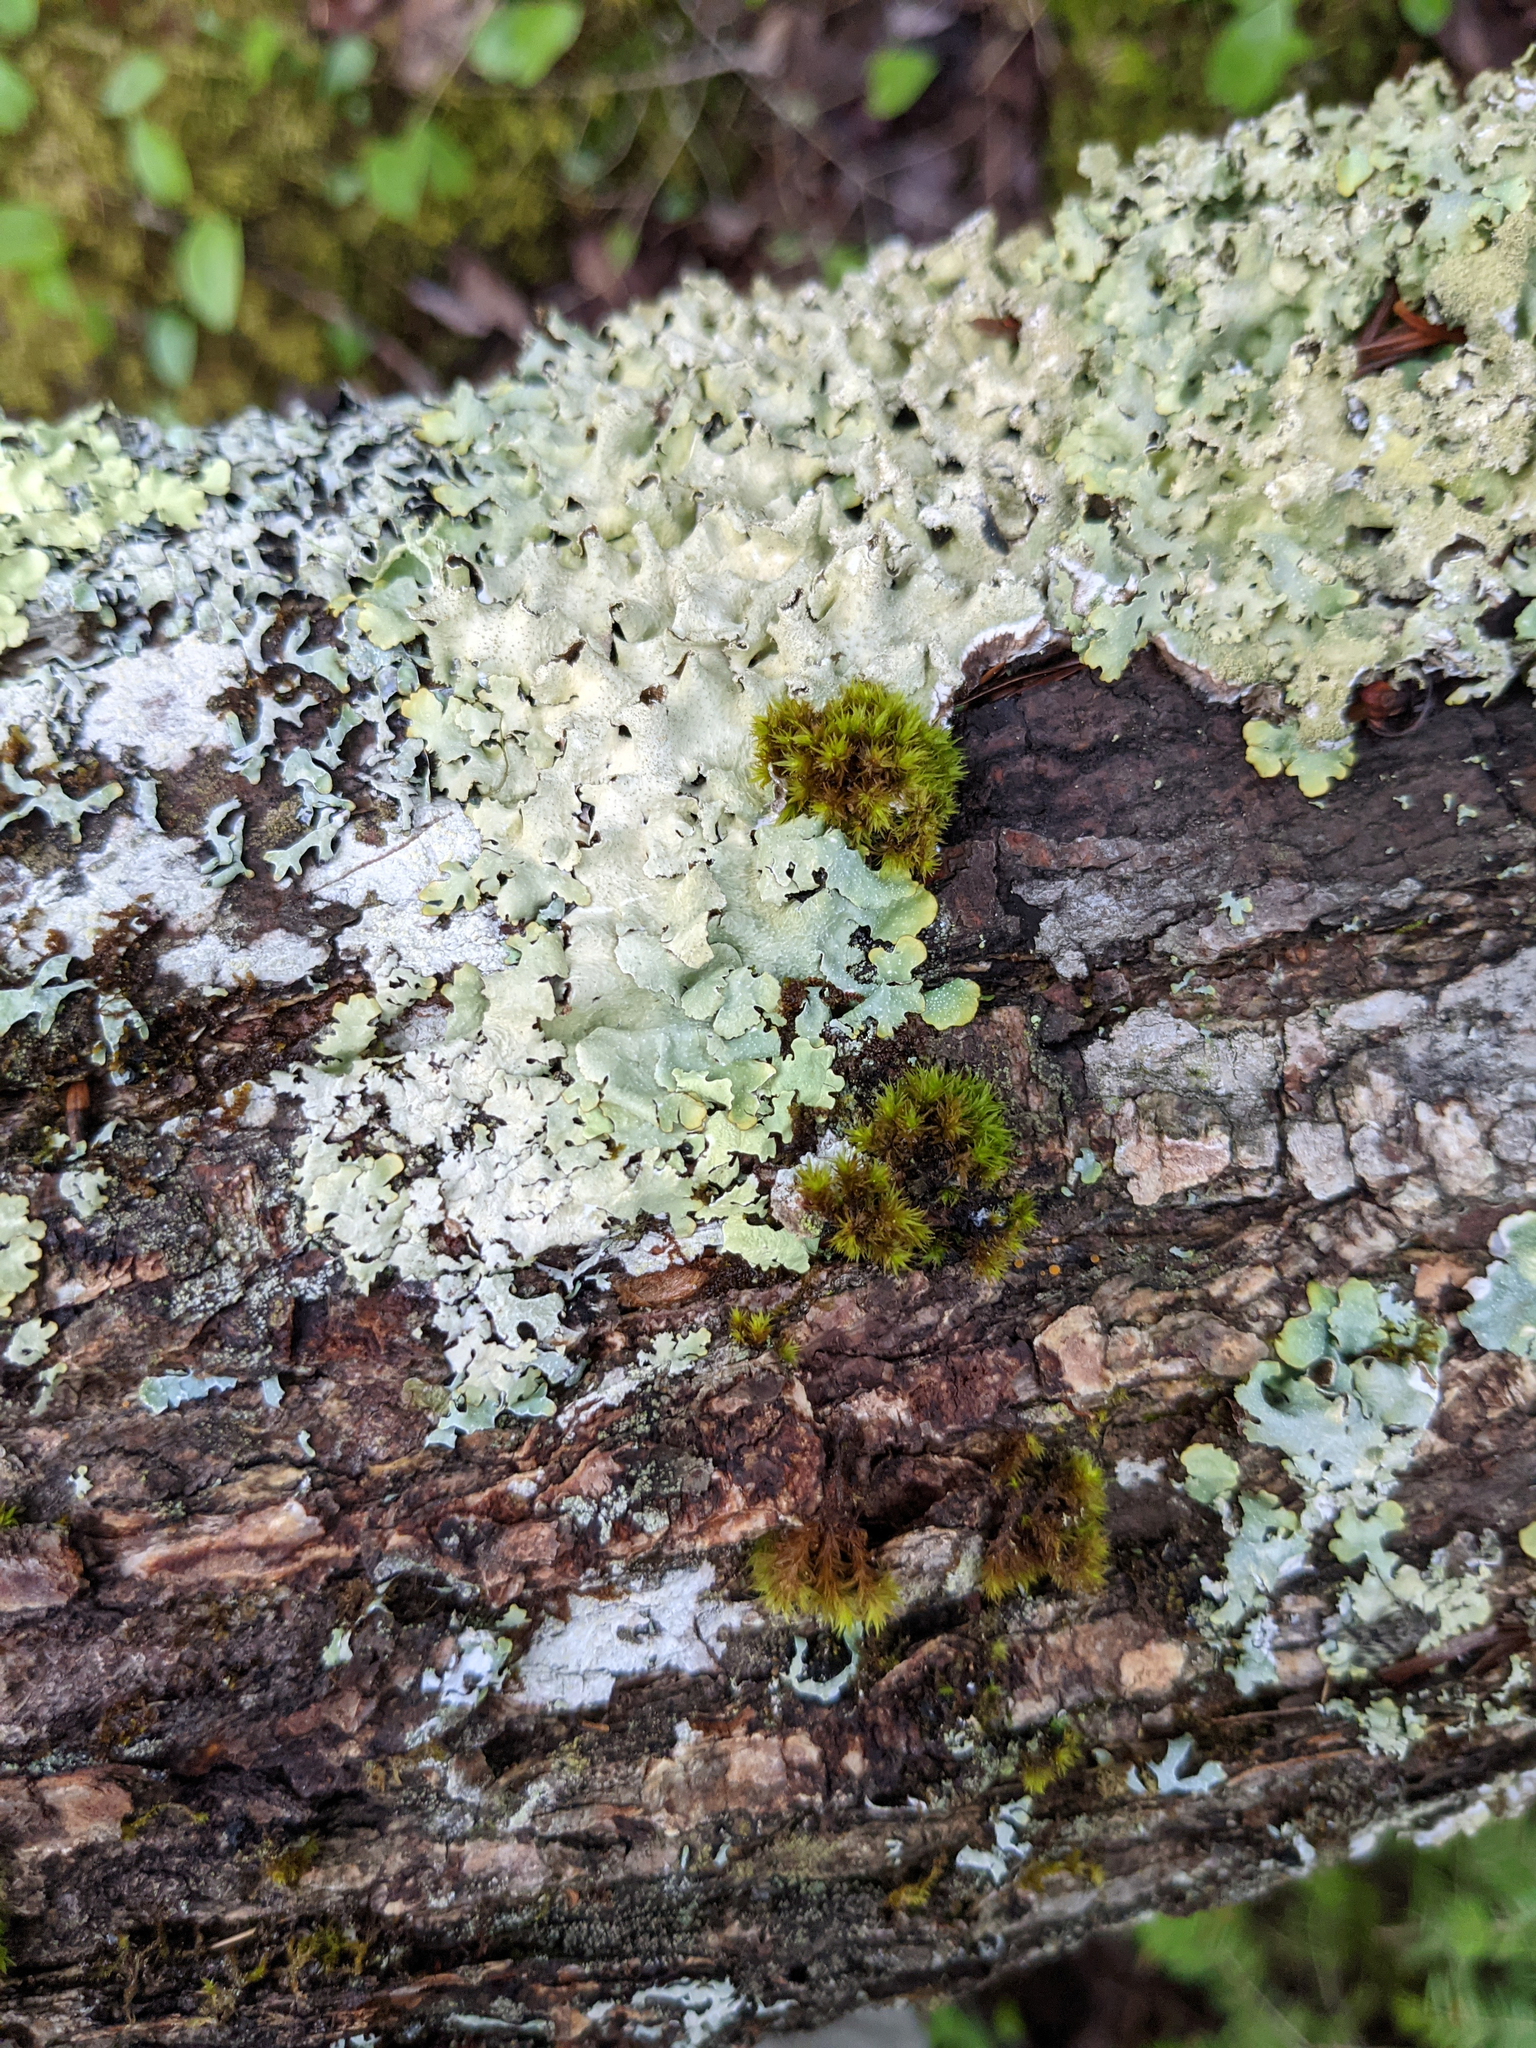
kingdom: Plantae
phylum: Bryophyta
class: Bryopsida
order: Orthotrichales
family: Orthotrichaceae
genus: Ulota
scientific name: Ulota crispa
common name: Crisped pincushion moss
